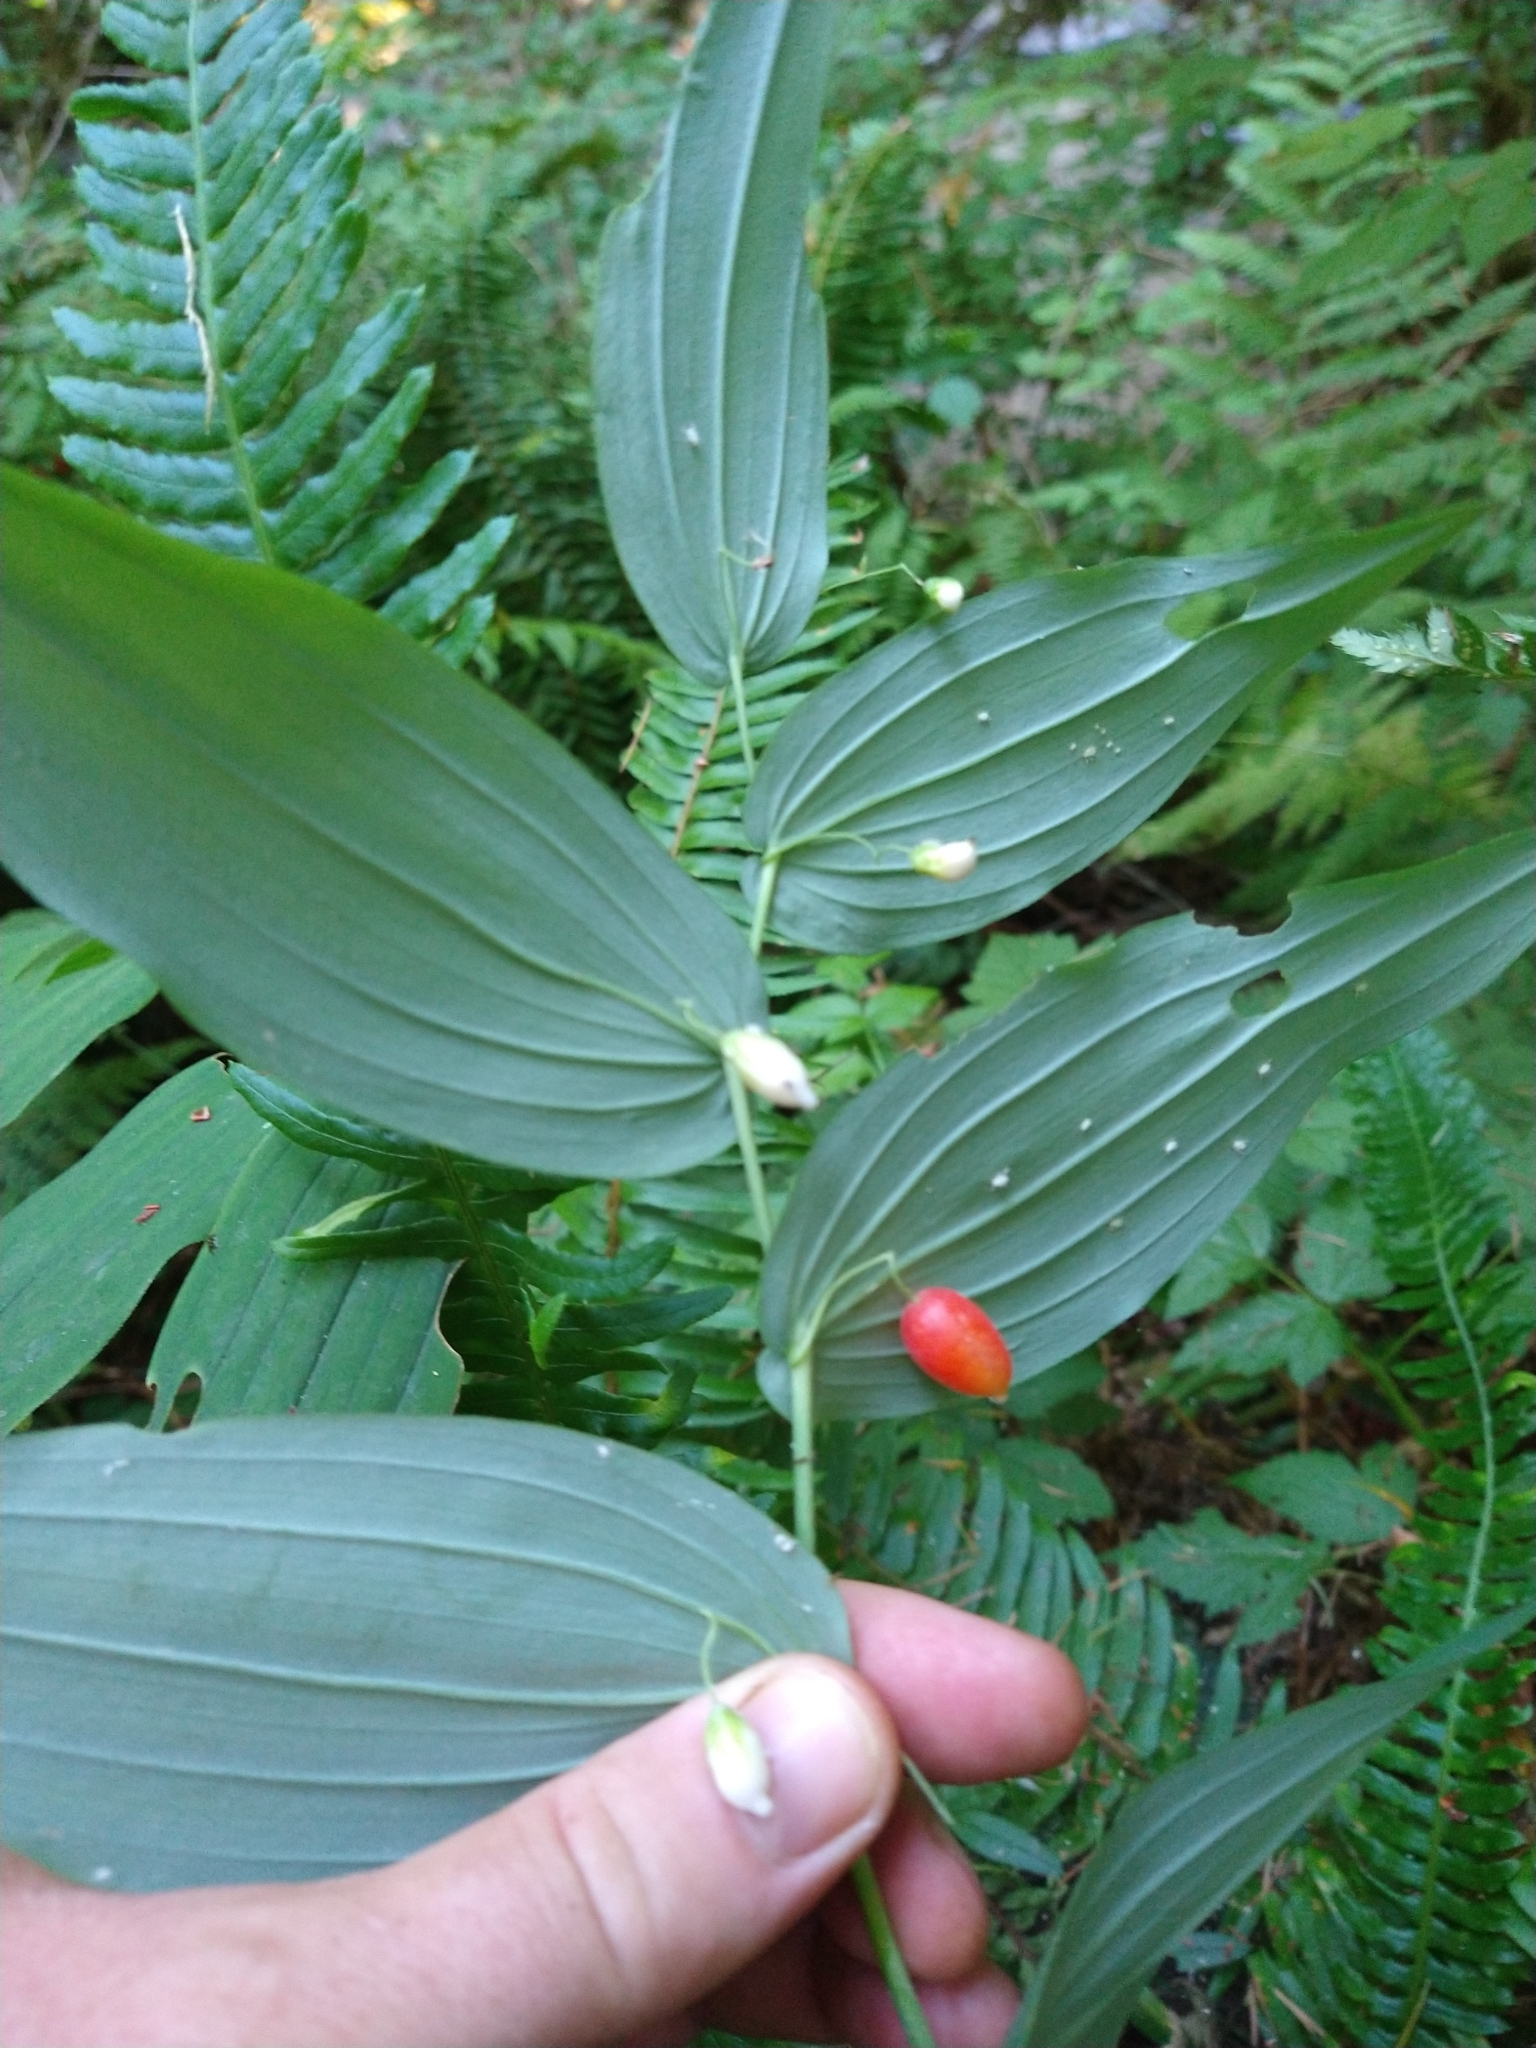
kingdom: Plantae
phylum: Tracheophyta
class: Liliopsida
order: Liliales
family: Liliaceae
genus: Streptopus
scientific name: Streptopus amplexifolius
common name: Clasp twisted stalk
